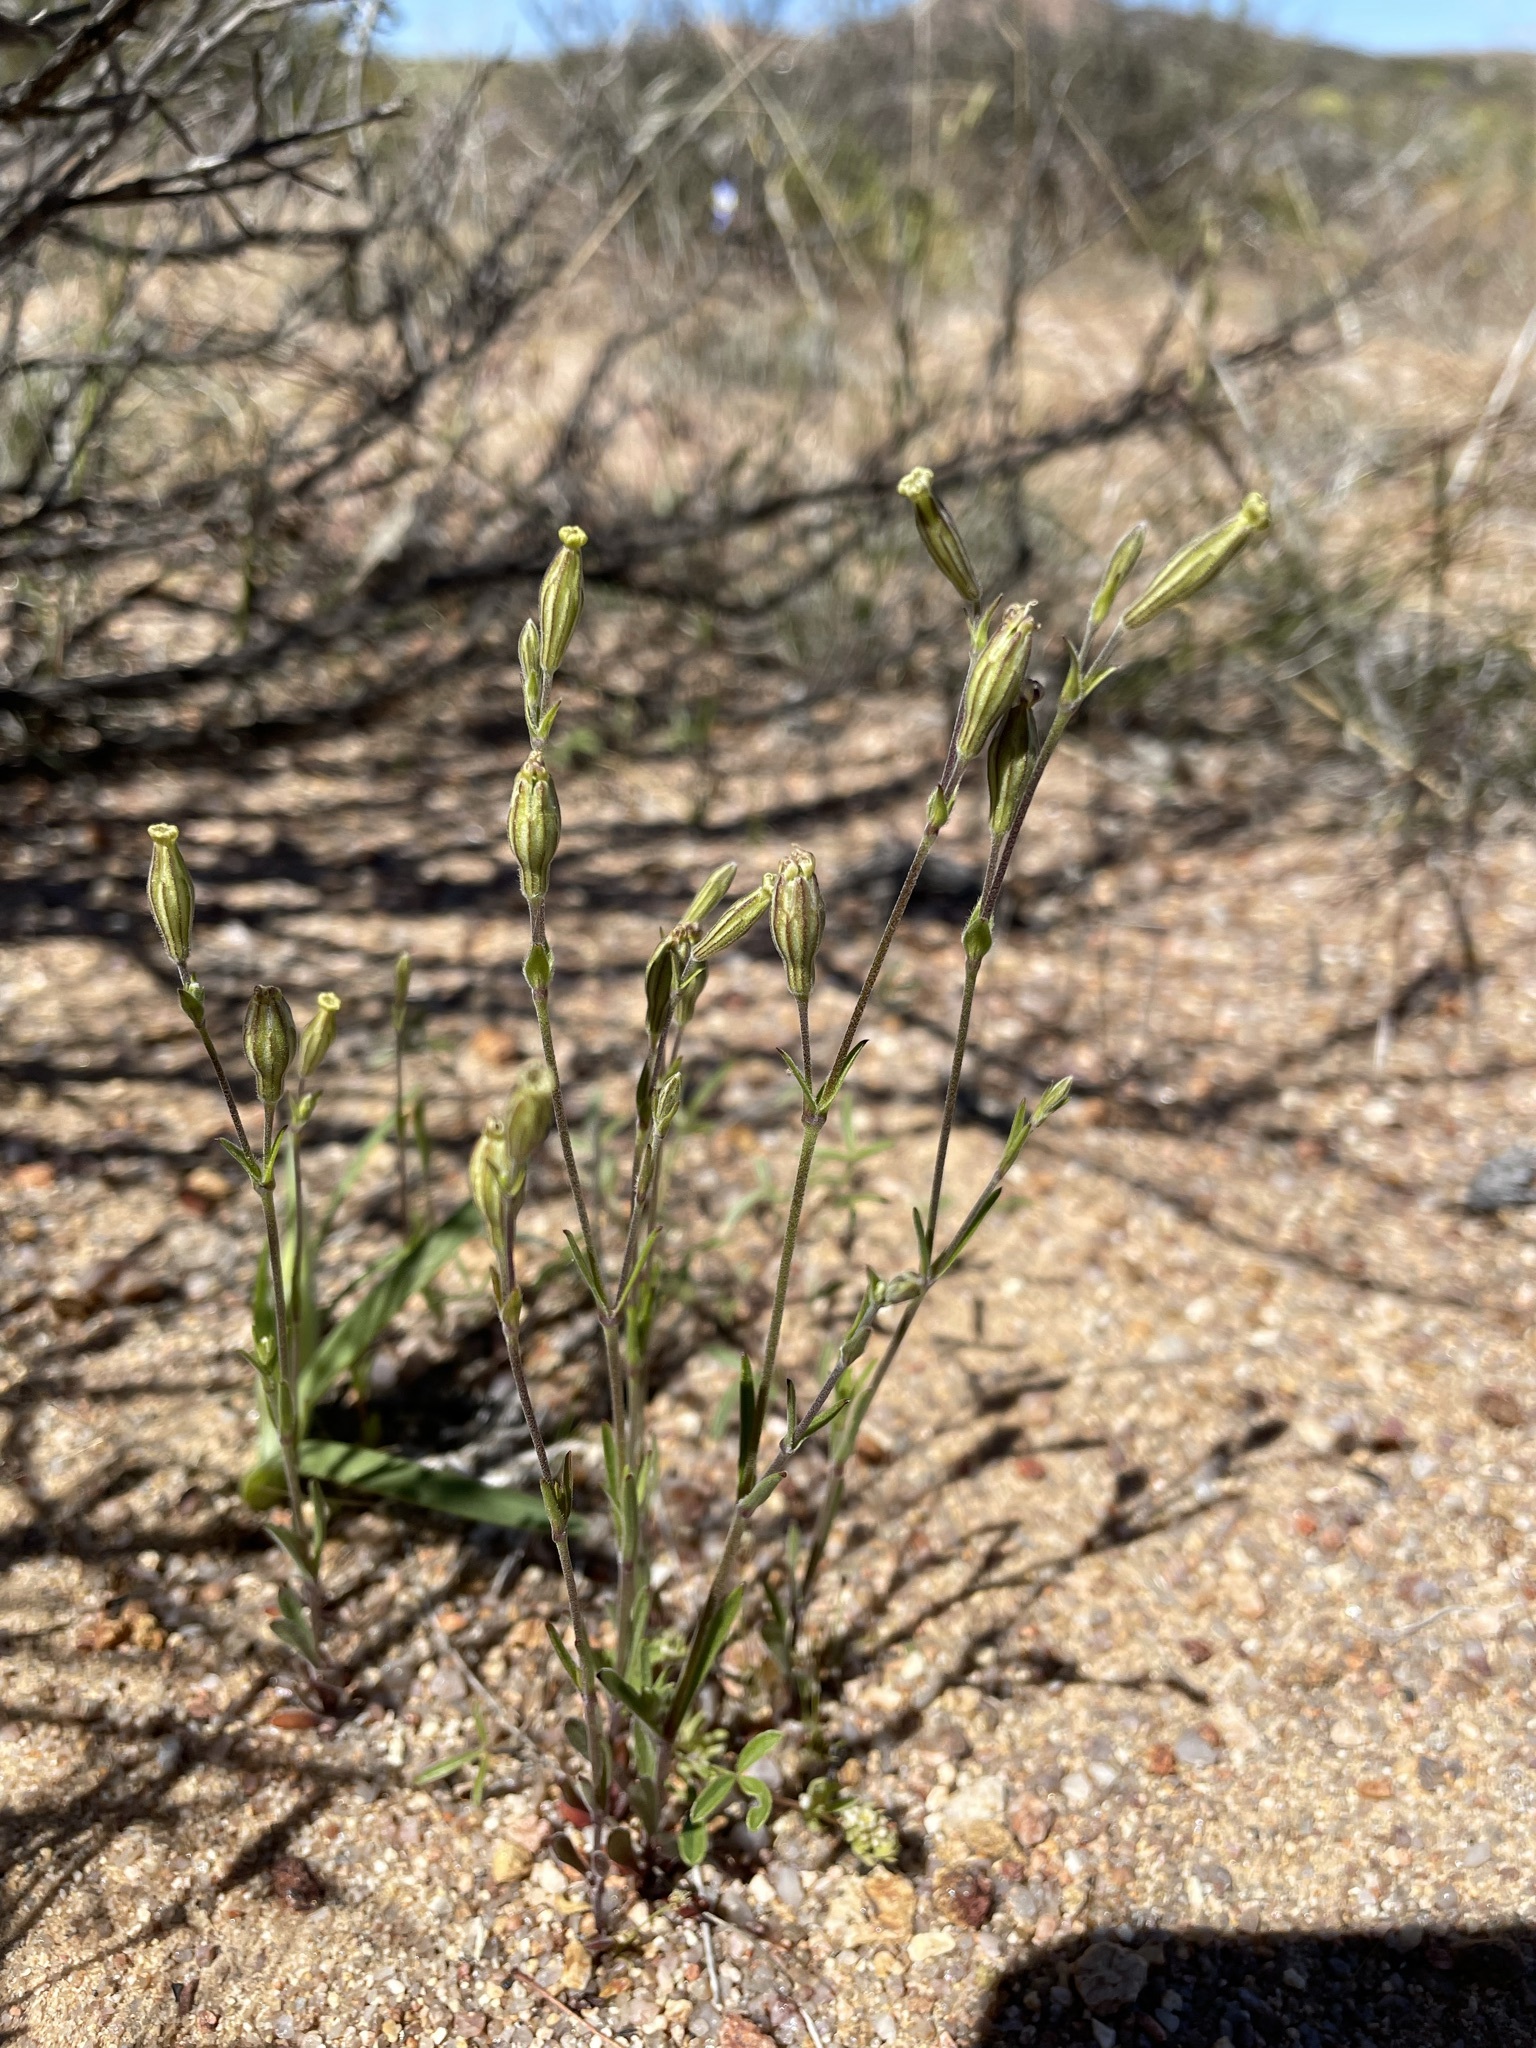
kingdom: Plantae
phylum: Tracheophyta
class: Magnoliopsida
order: Caryophyllales
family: Caryophyllaceae
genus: Silene
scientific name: Silene aethiopica
